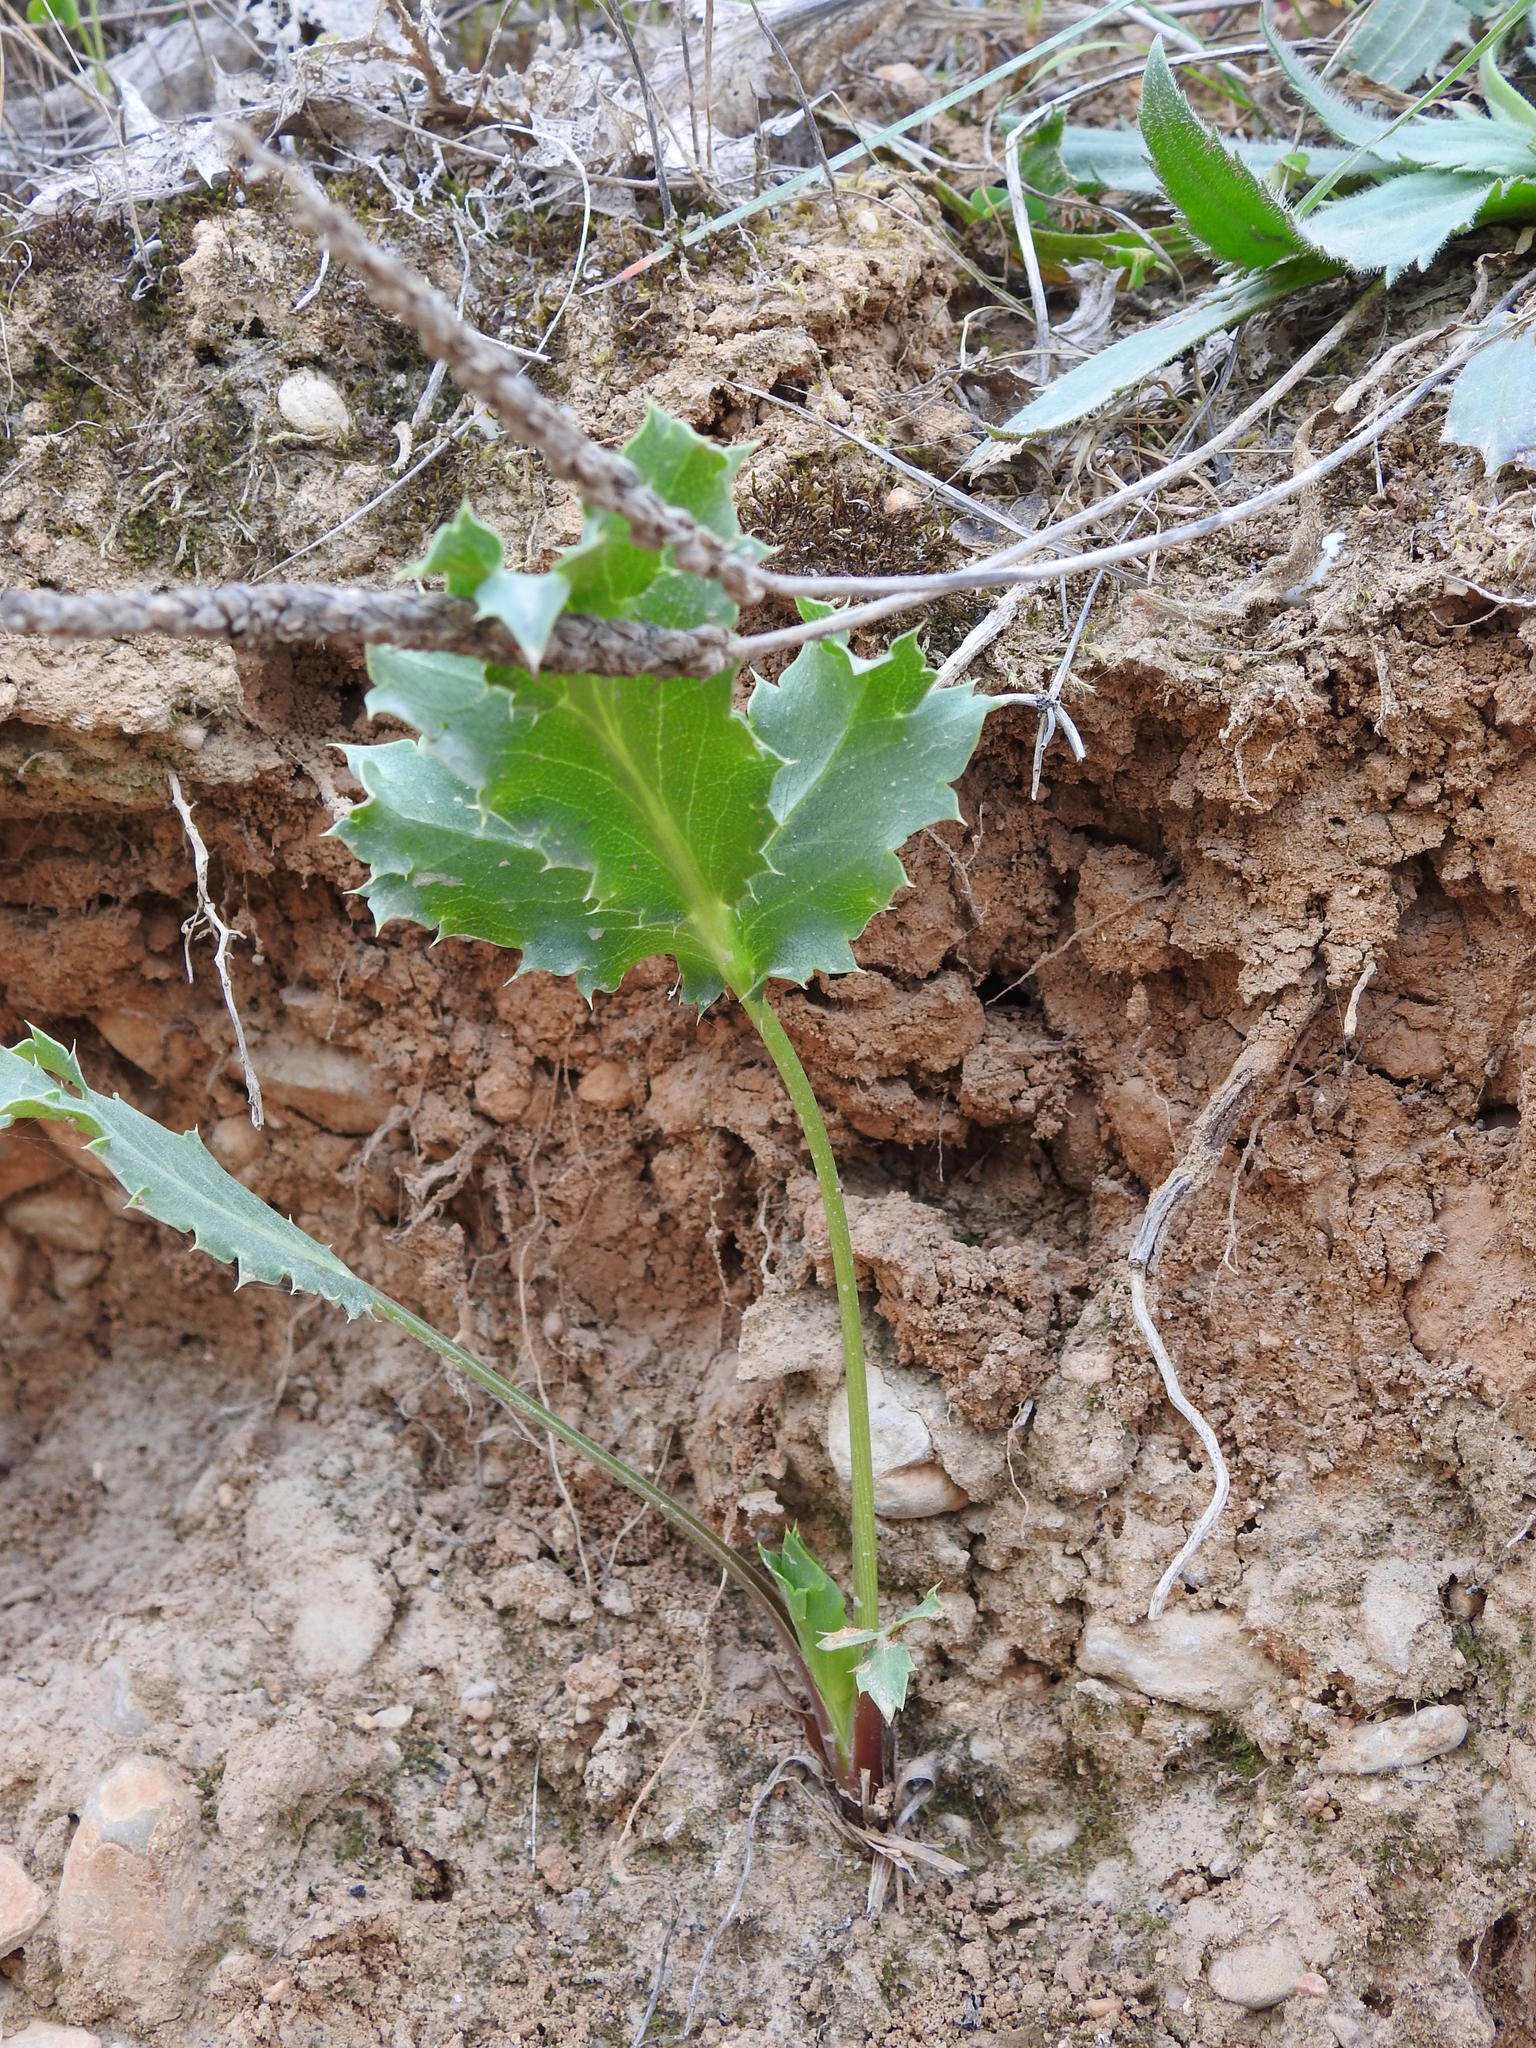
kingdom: Plantae
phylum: Tracheophyta
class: Magnoliopsida
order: Apiales
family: Apiaceae
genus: Eryngium
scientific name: Eryngium campestre
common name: Field eryngo
